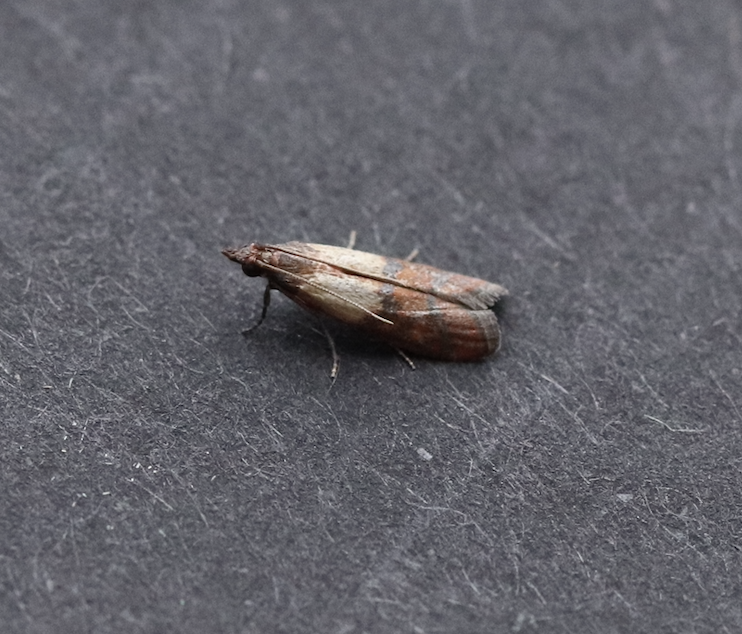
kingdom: Animalia
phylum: Arthropoda
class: Insecta
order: Lepidoptera
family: Pyralidae
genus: Plodia
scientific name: Plodia interpunctella
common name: Indian meal moth
